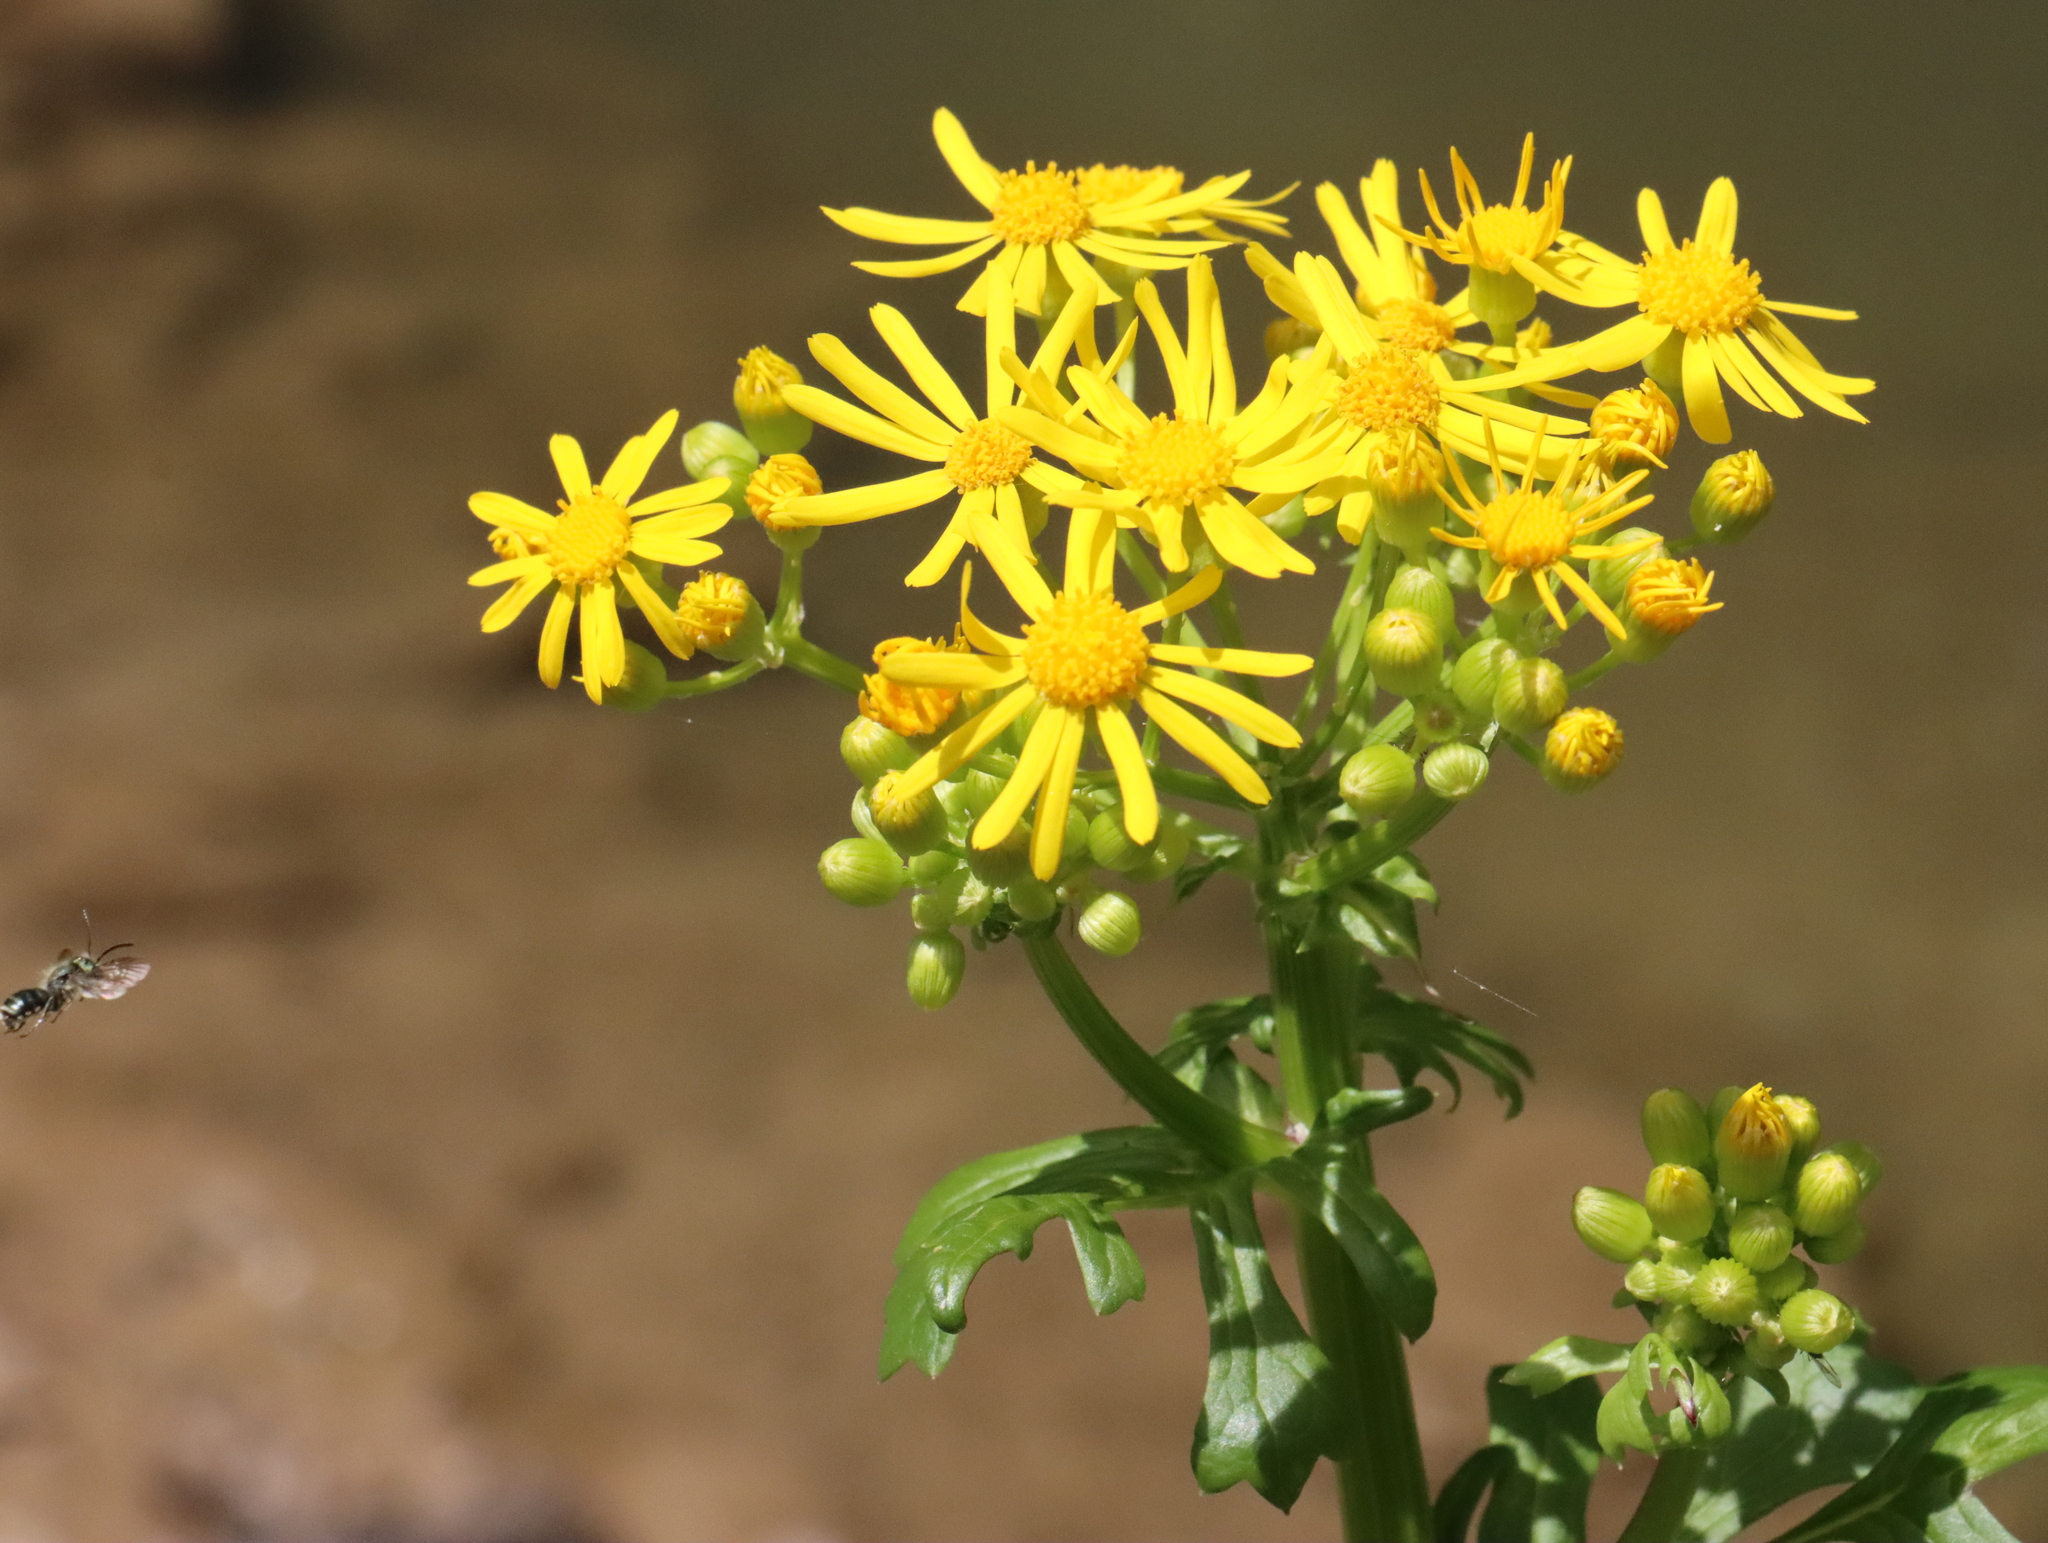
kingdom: Plantae
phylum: Tracheophyta
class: Magnoliopsida
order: Asterales
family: Asteraceae
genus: Packera
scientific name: Packera glabella
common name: Butterweed
